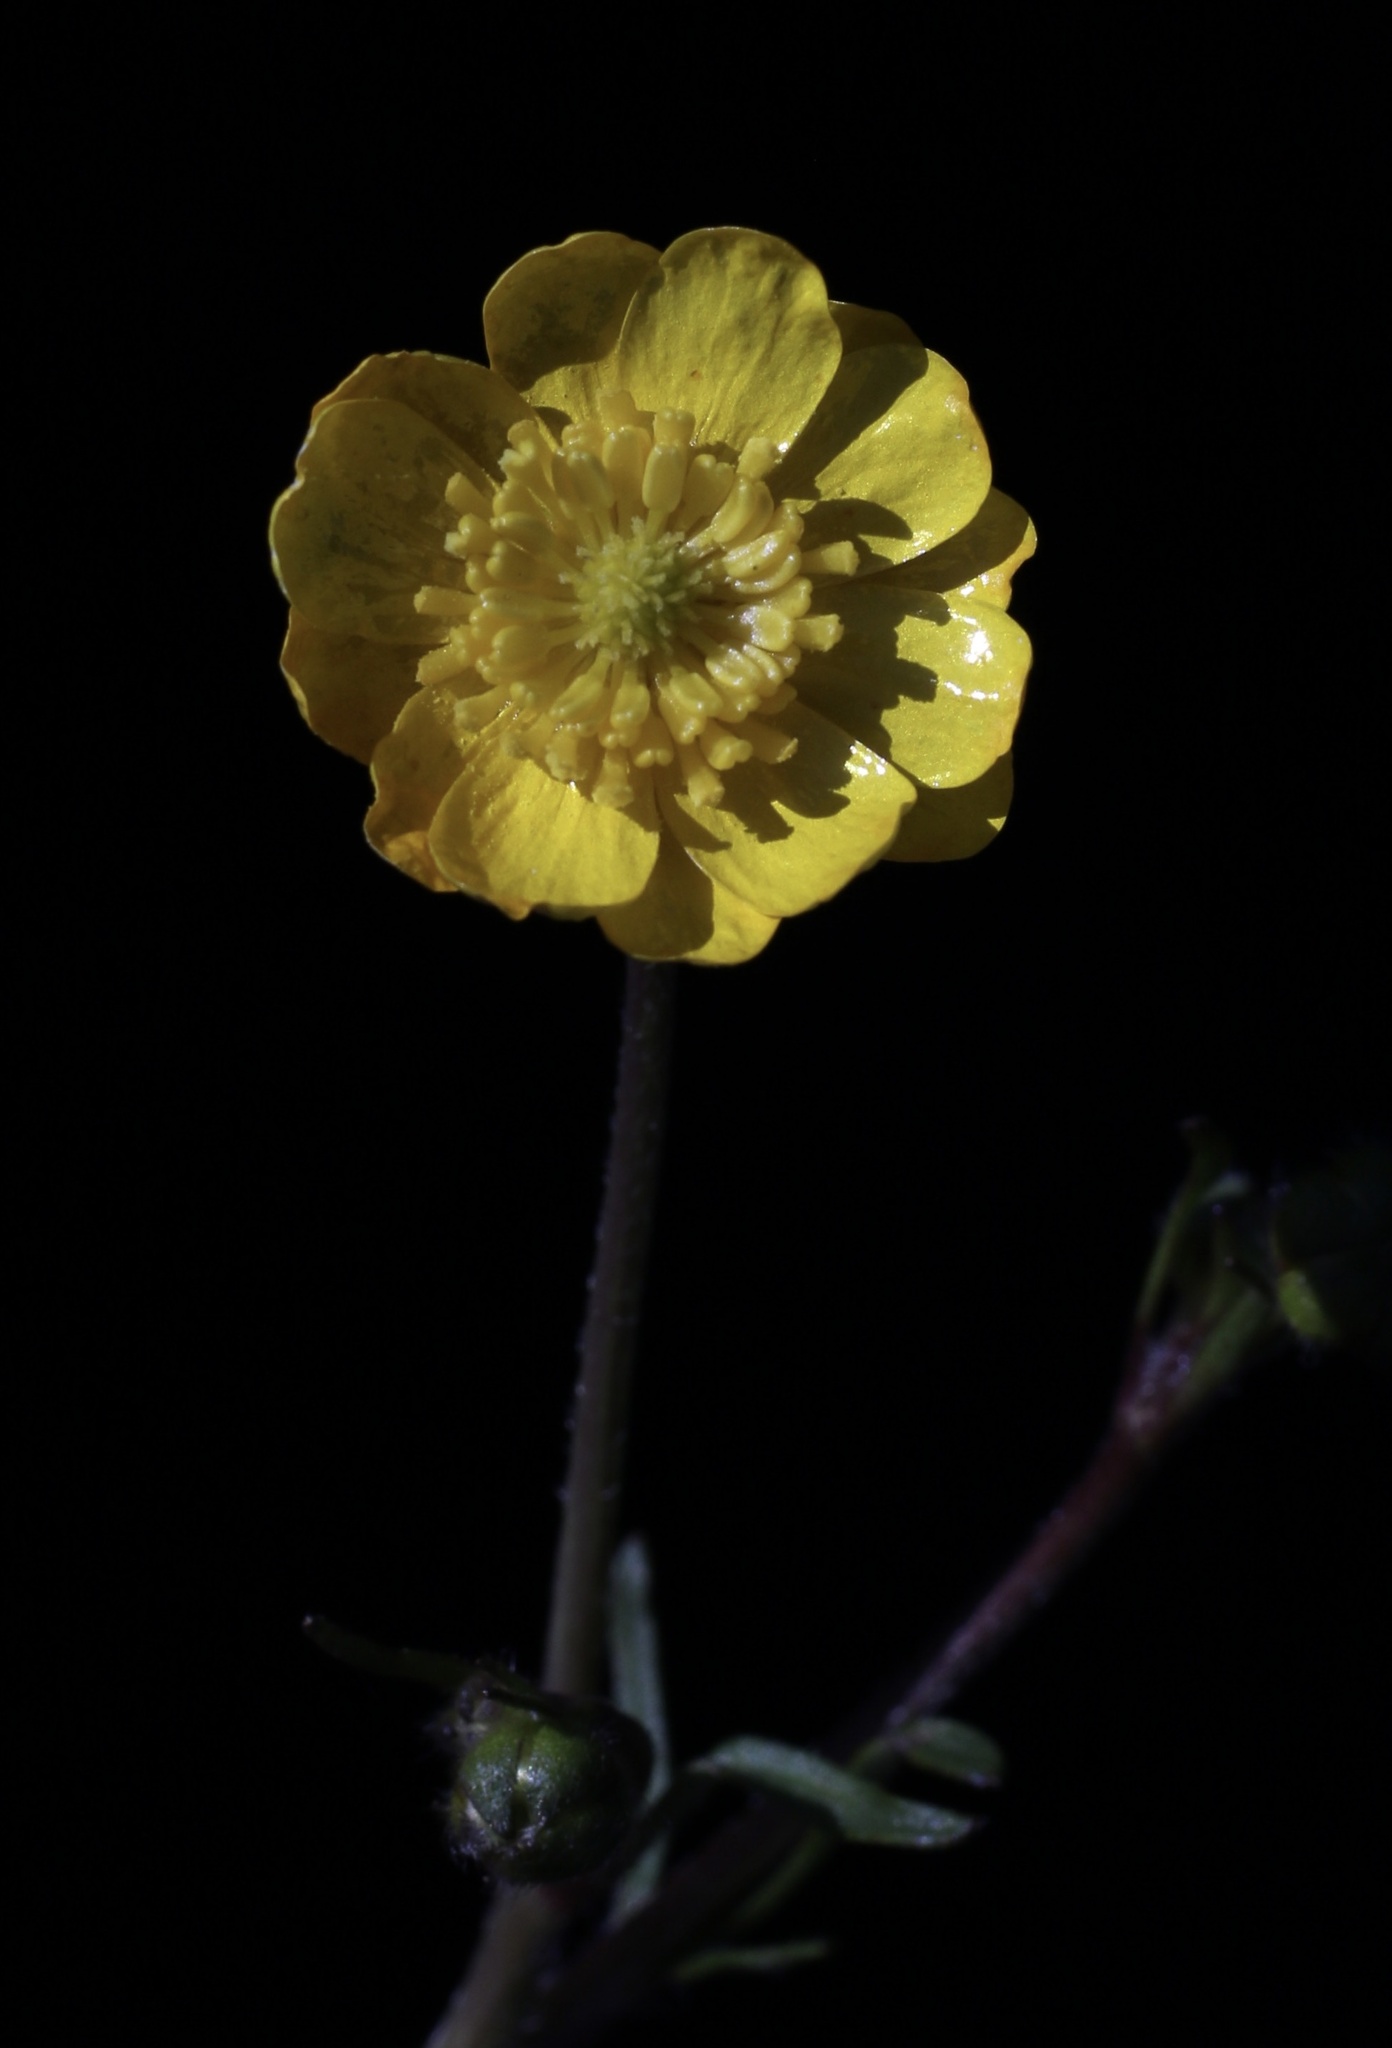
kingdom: Plantae
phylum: Tracheophyta
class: Magnoliopsida
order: Ranunculales
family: Ranunculaceae
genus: Ranunculus
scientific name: Ranunculus californicus
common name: California buttercup
